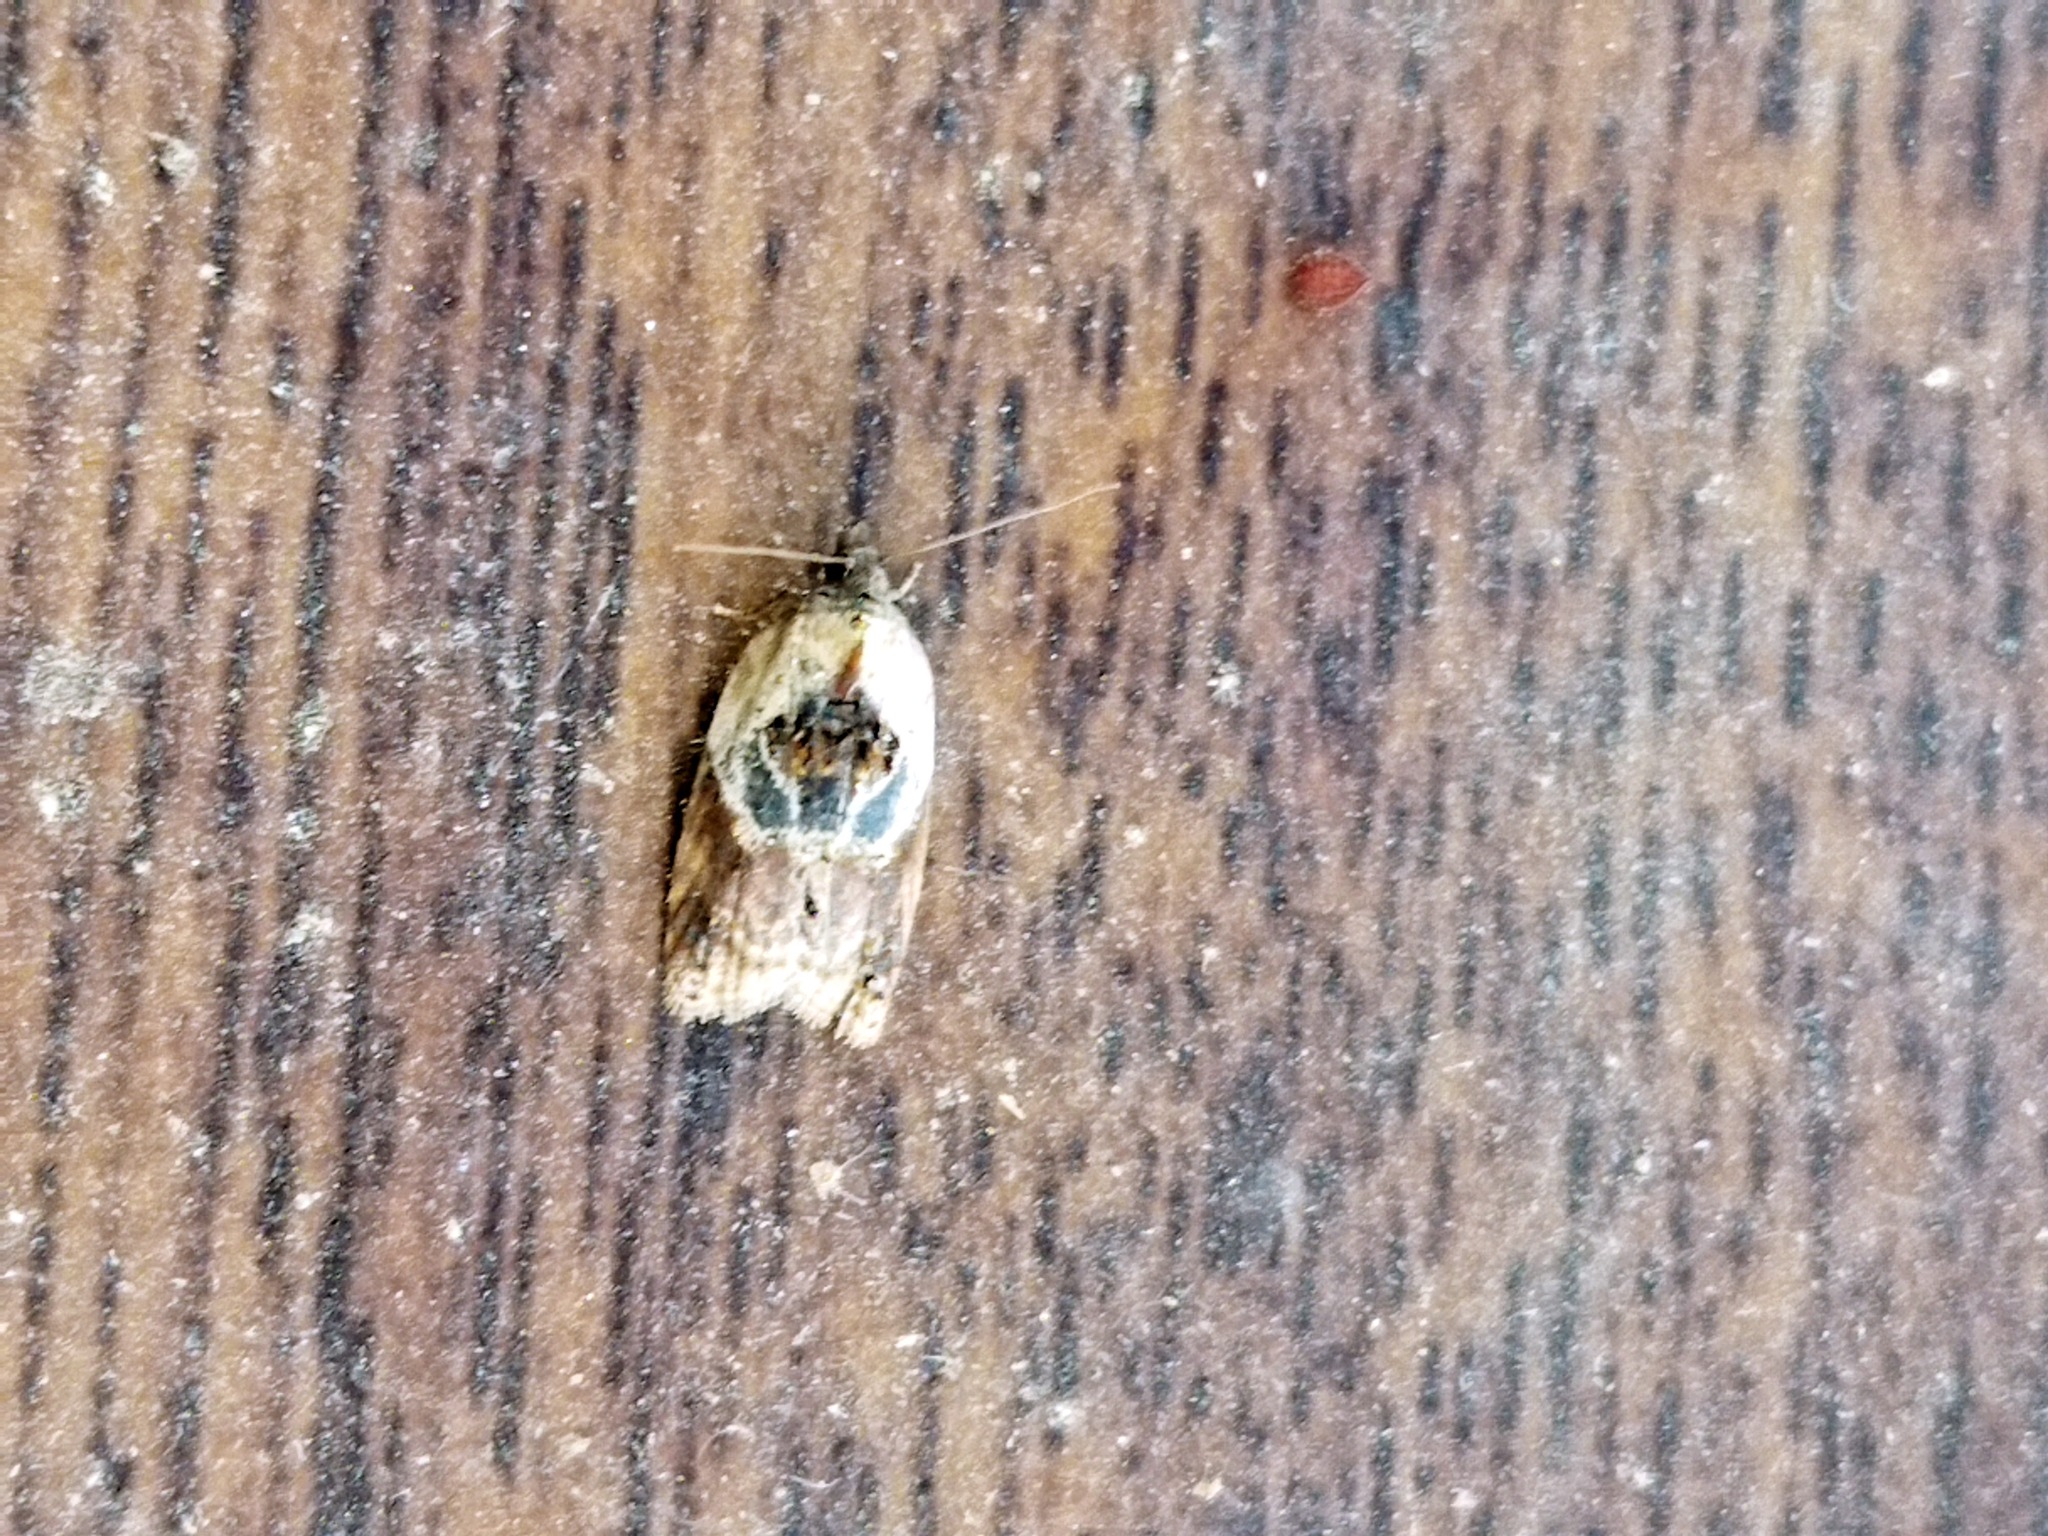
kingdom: Animalia
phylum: Arthropoda
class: Insecta
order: Lepidoptera
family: Tortricidae
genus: Acleris
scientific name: Acleris variegana
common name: Garden rose tortrix
